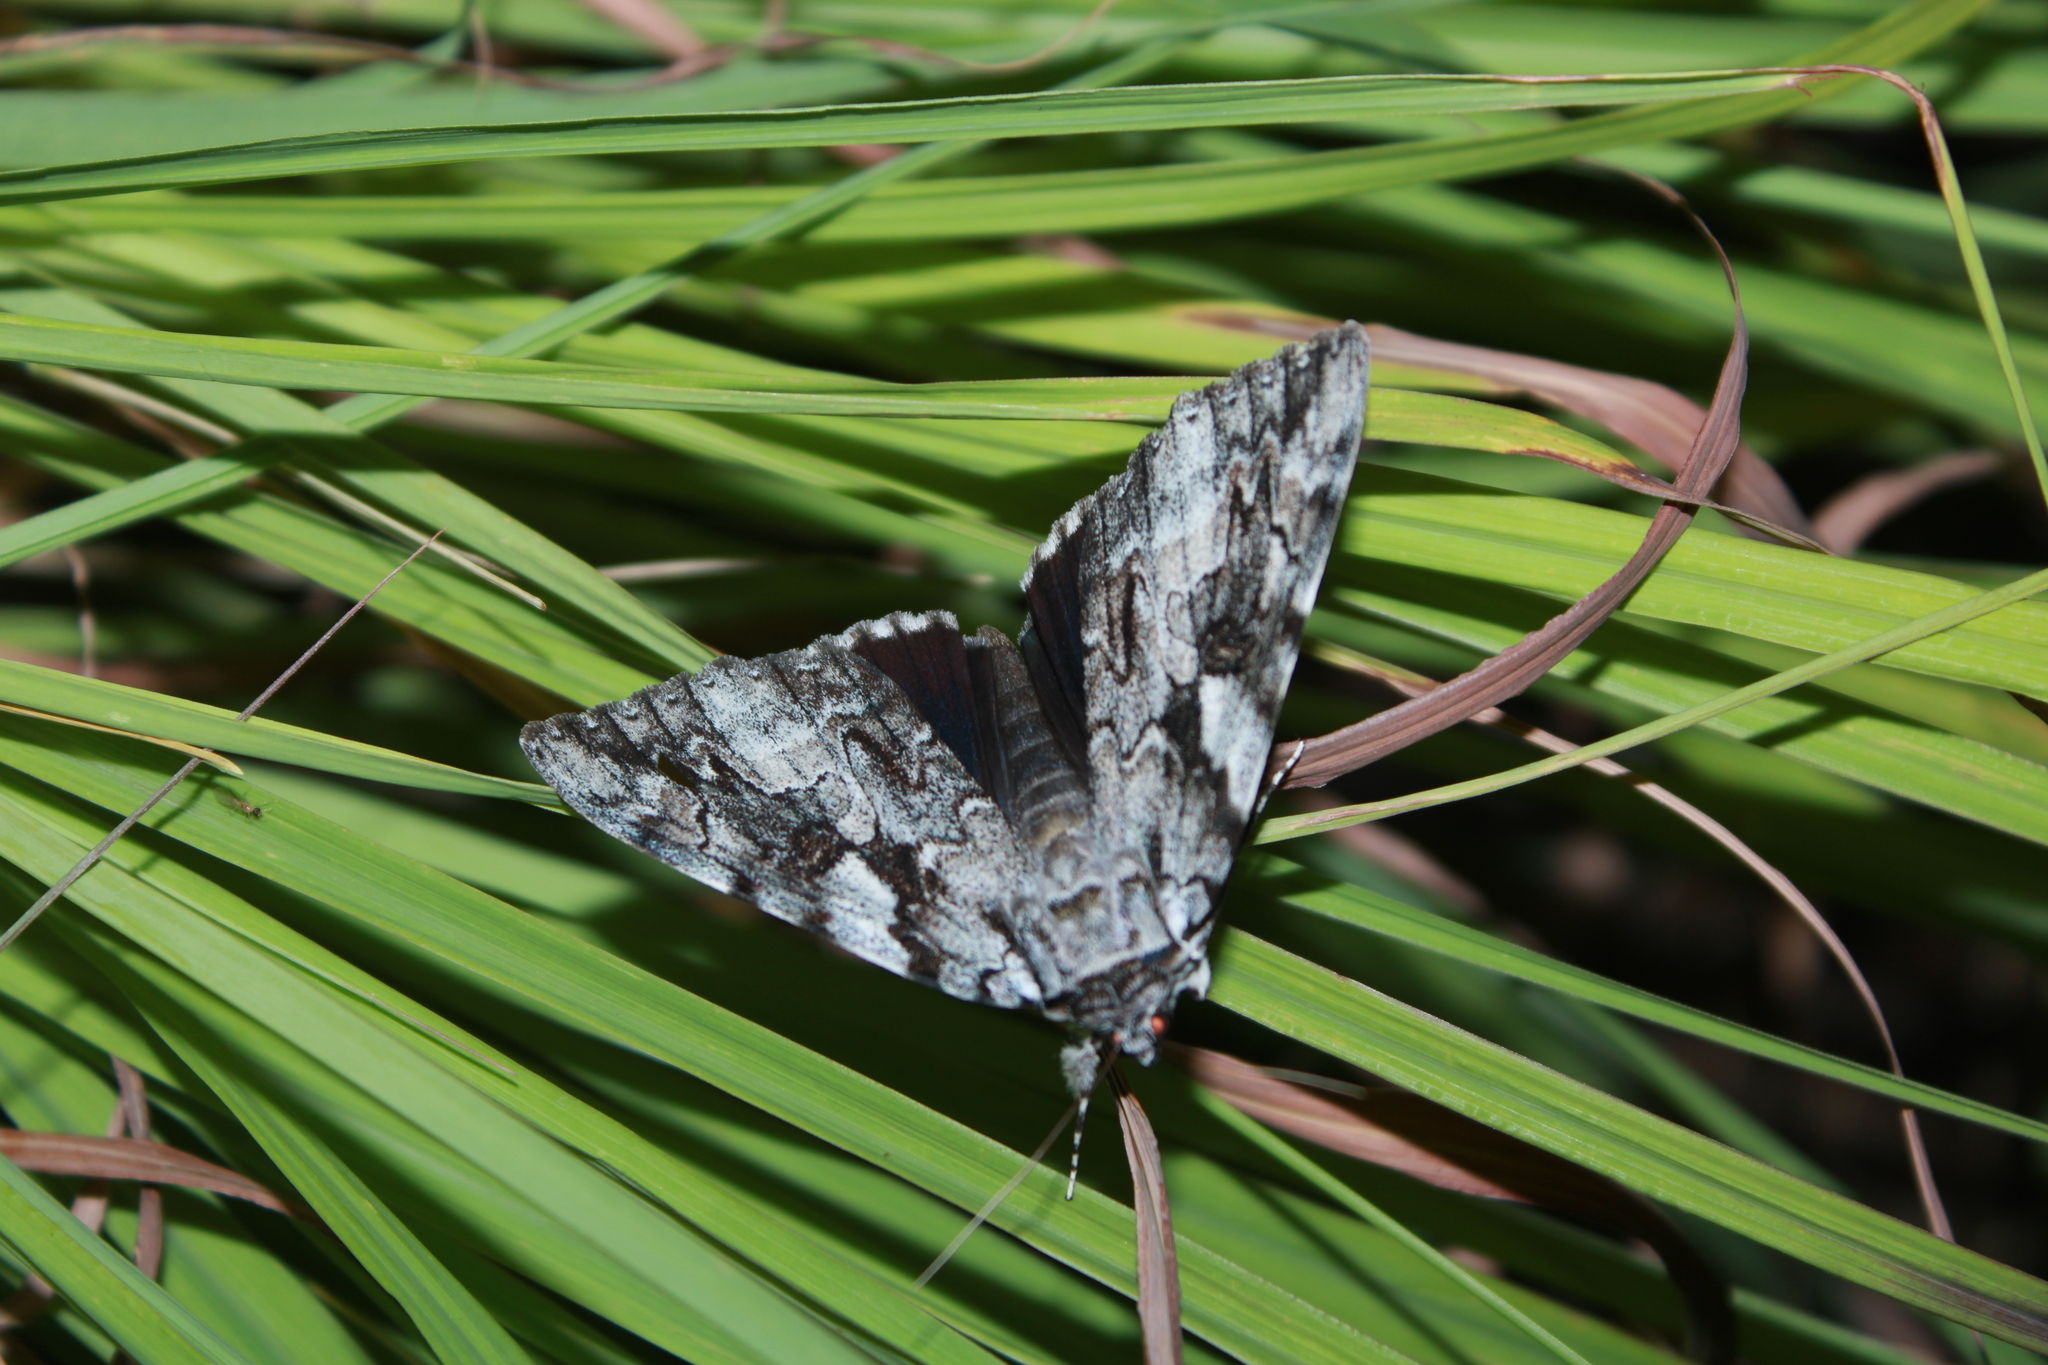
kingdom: Animalia
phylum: Arthropoda
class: Insecta
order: Lepidoptera
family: Erebidae
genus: Catocala
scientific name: Catocala dejecta
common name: Dejected underwing
